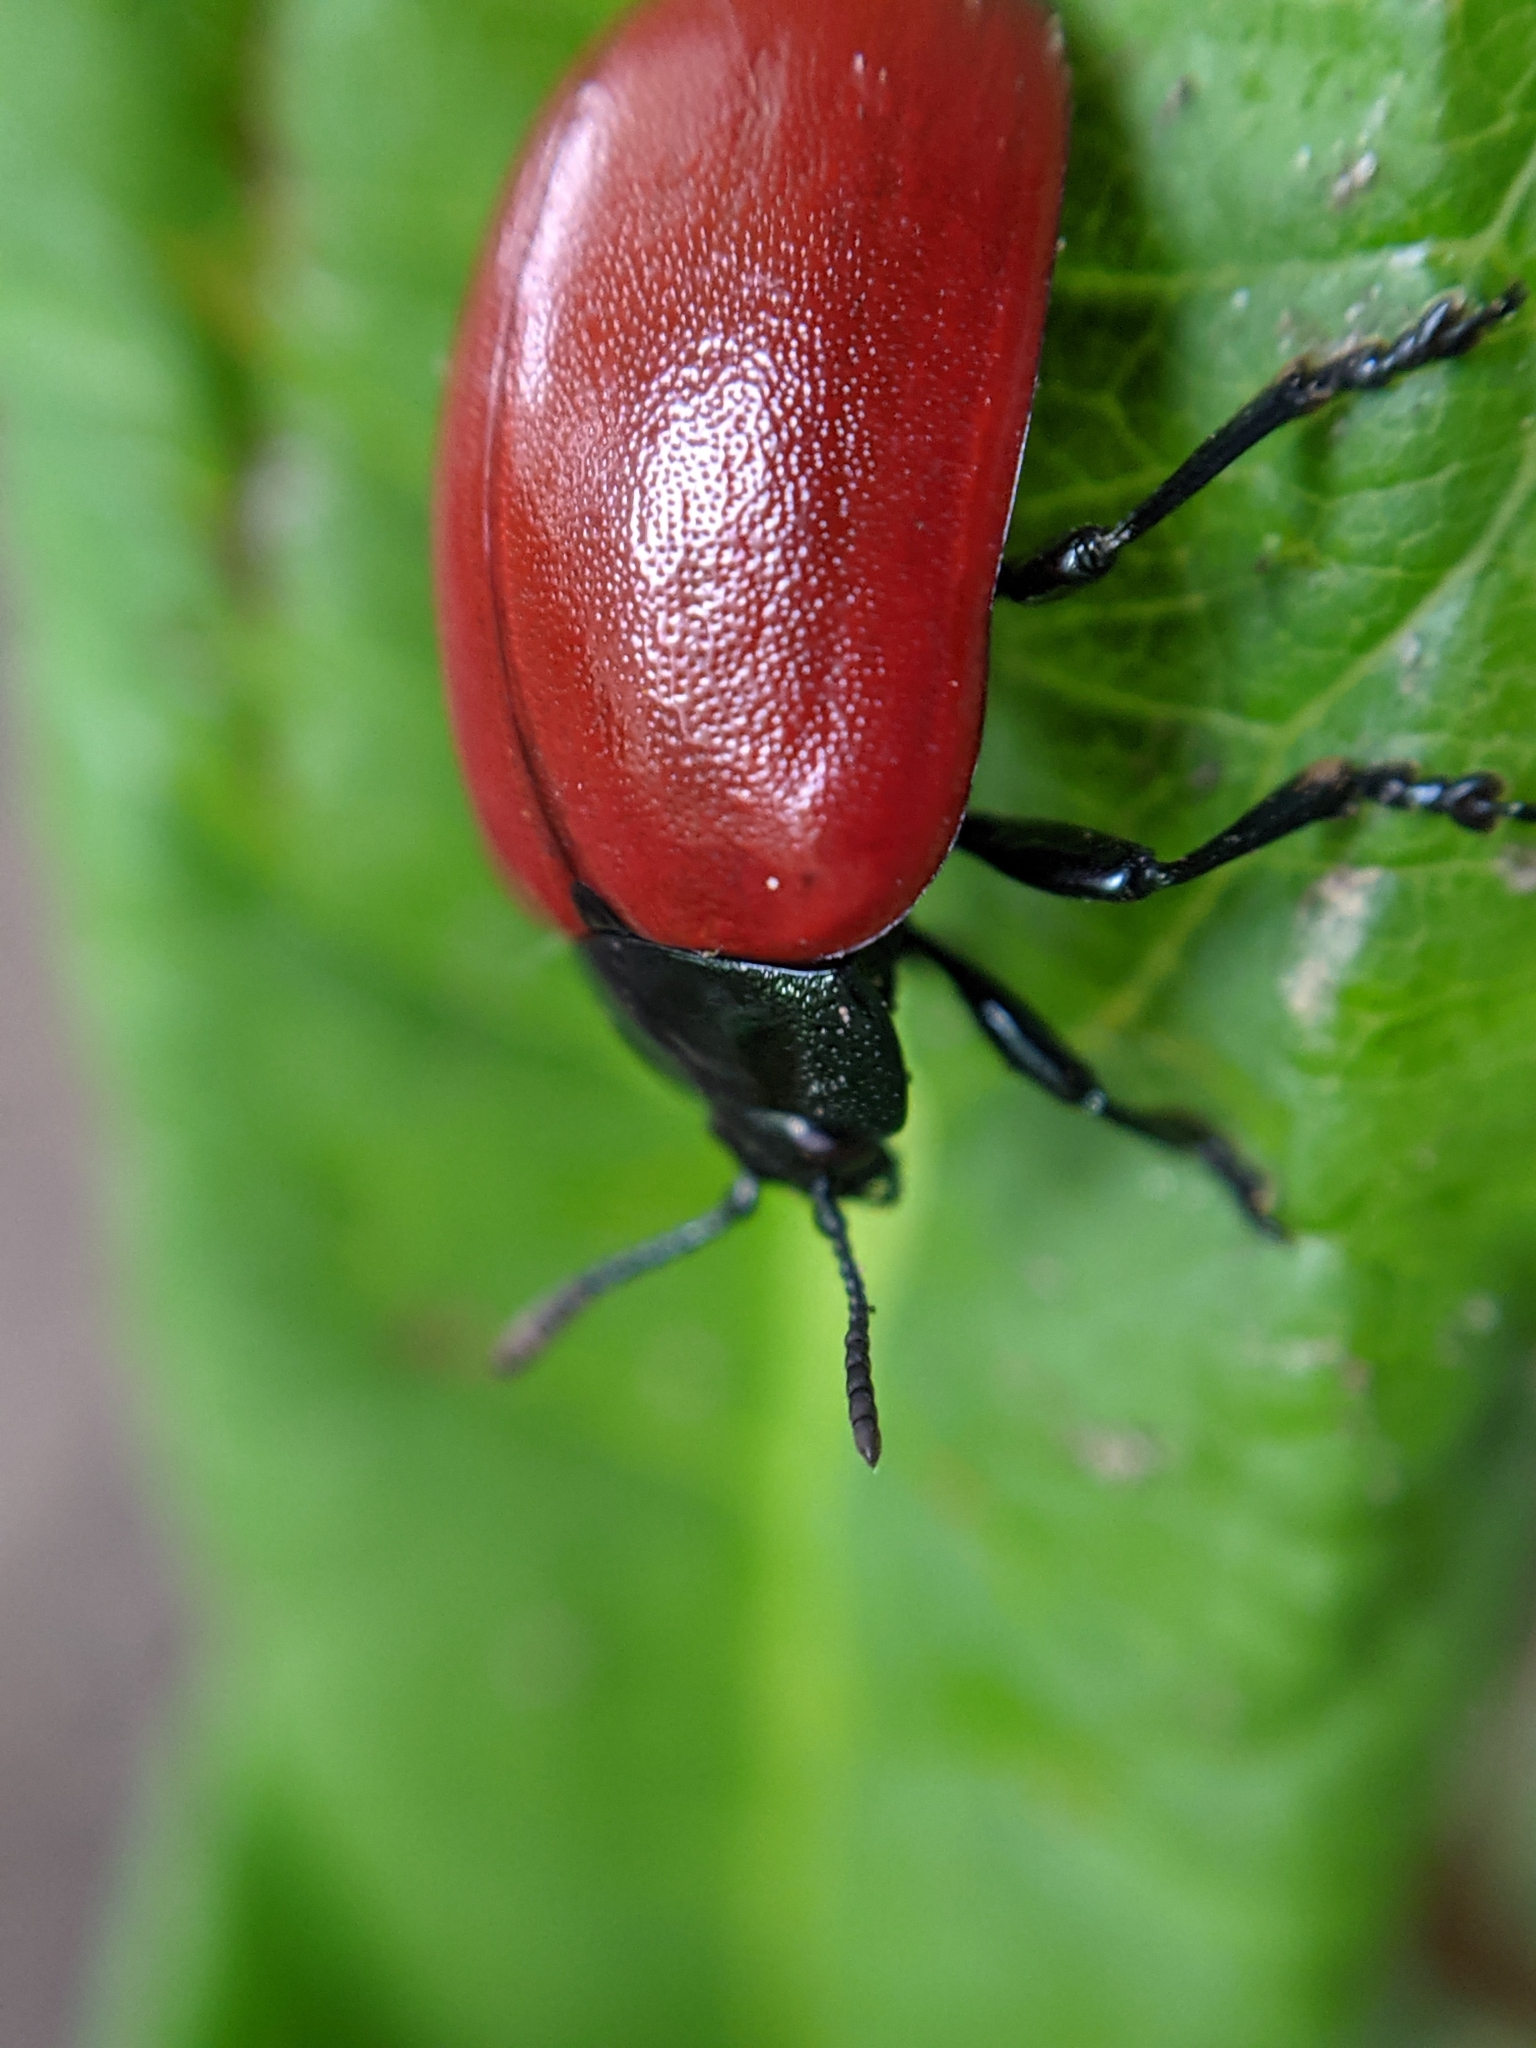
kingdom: Animalia
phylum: Arthropoda
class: Insecta
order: Coleoptera
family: Chrysomelidae
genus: Chrysomela
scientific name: Chrysomela populi
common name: Red poplar leaf beetle
